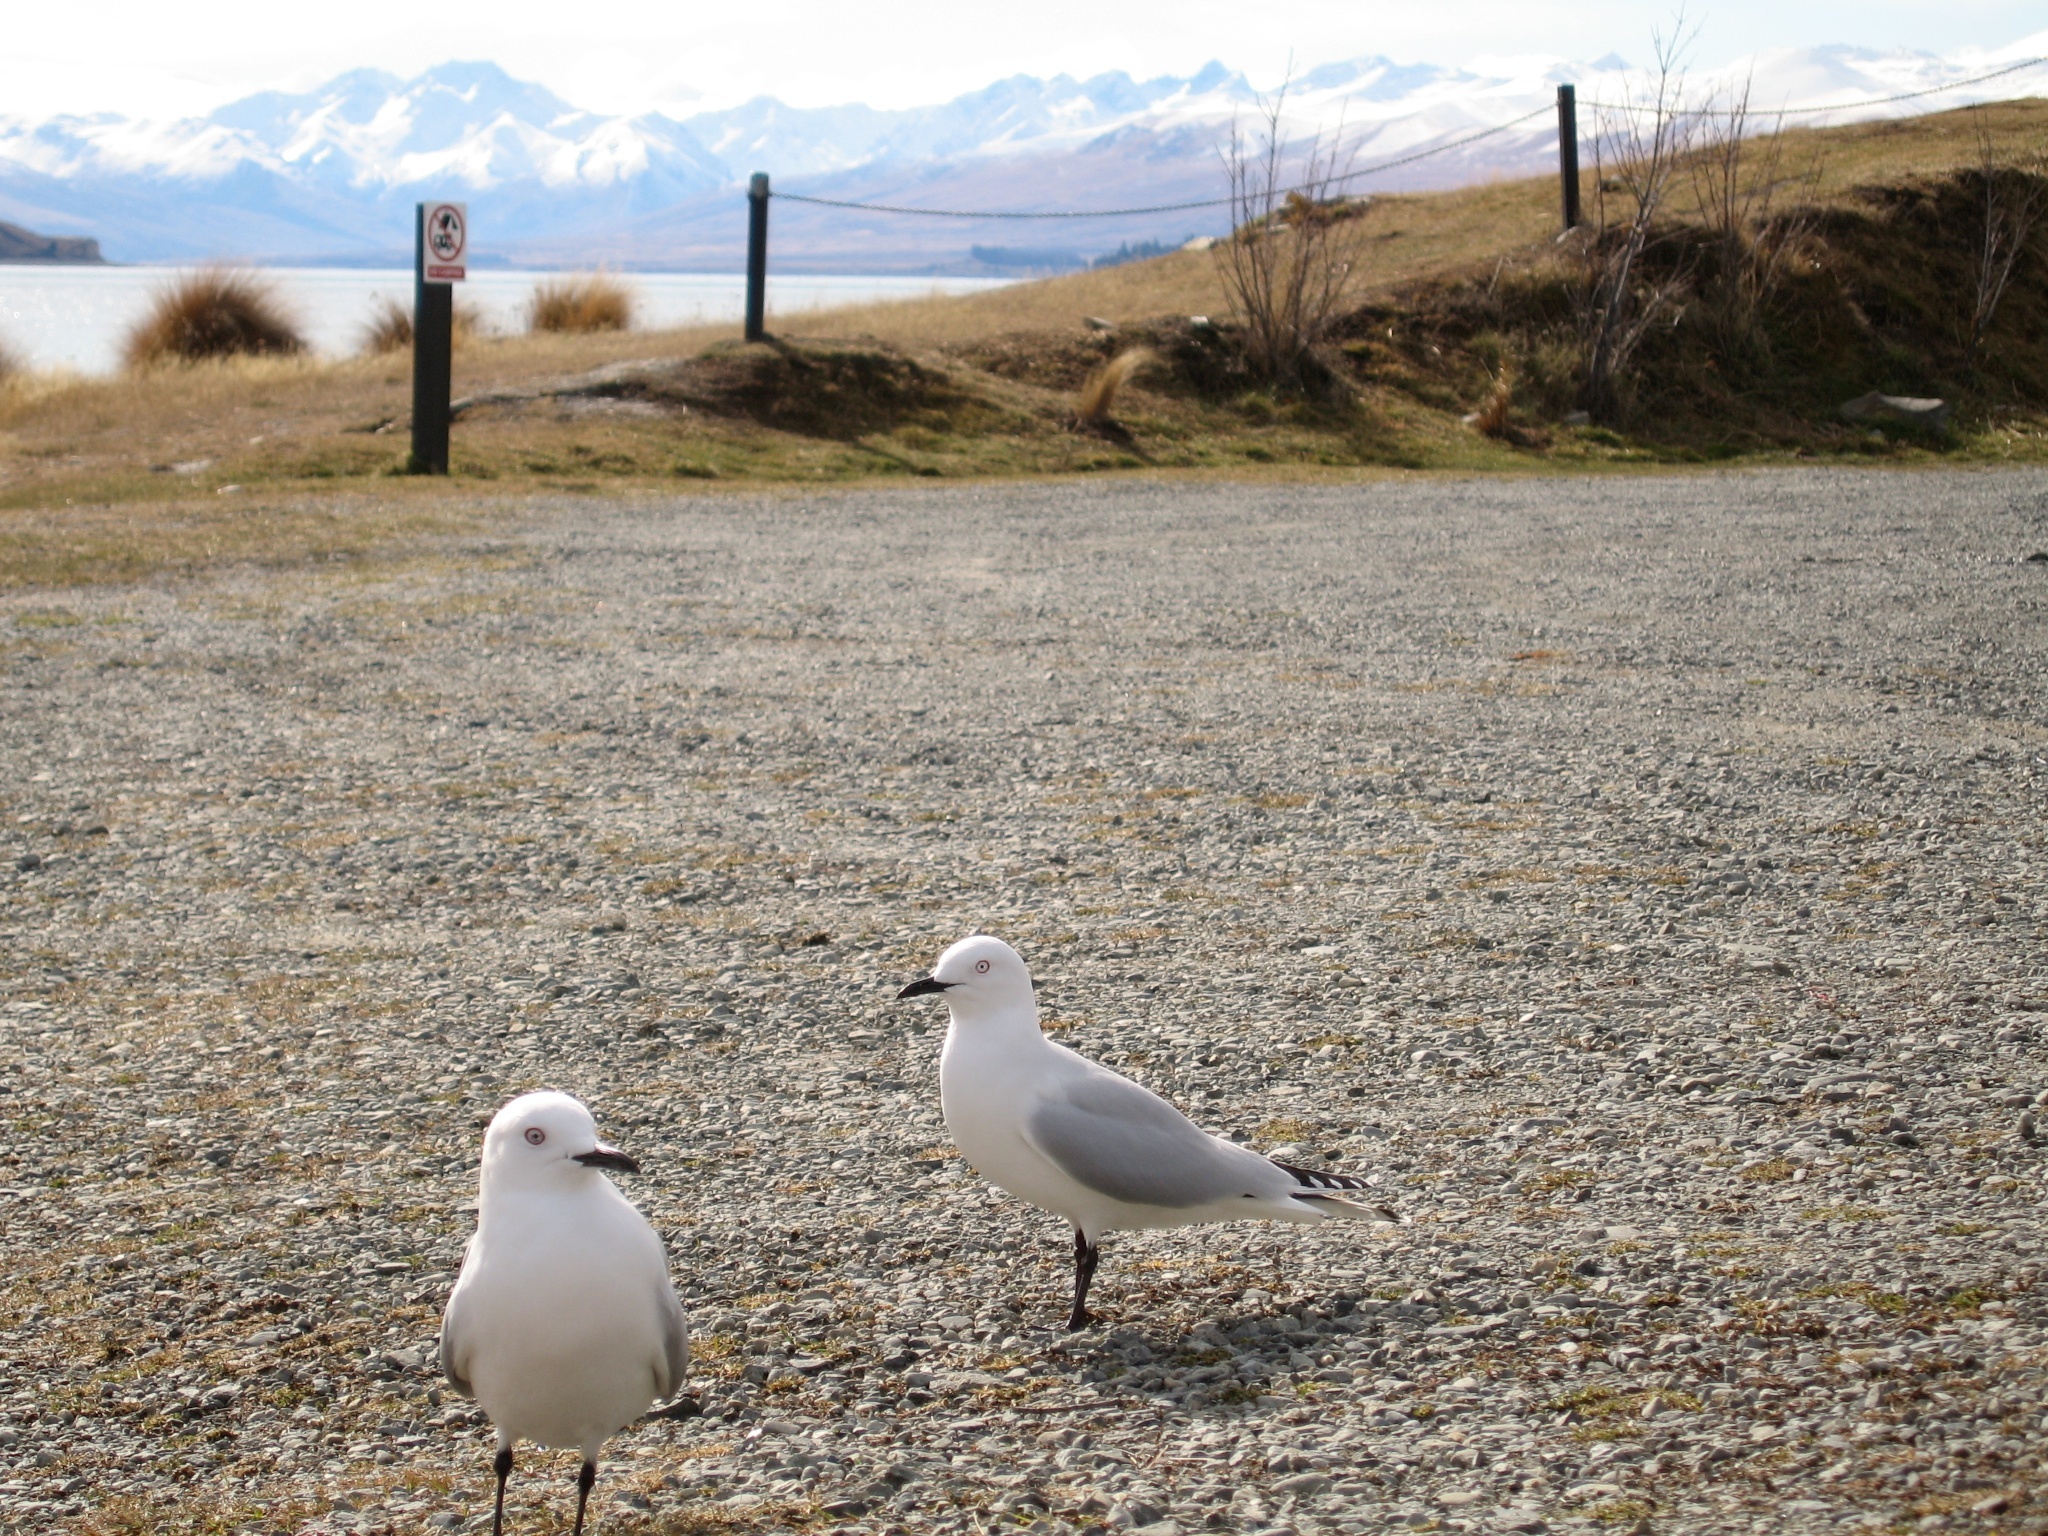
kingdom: Animalia
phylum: Chordata
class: Aves
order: Charadriiformes
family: Laridae
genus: Chroicocephalus
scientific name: Chroicocephalus bulleri
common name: Black-billed gull
